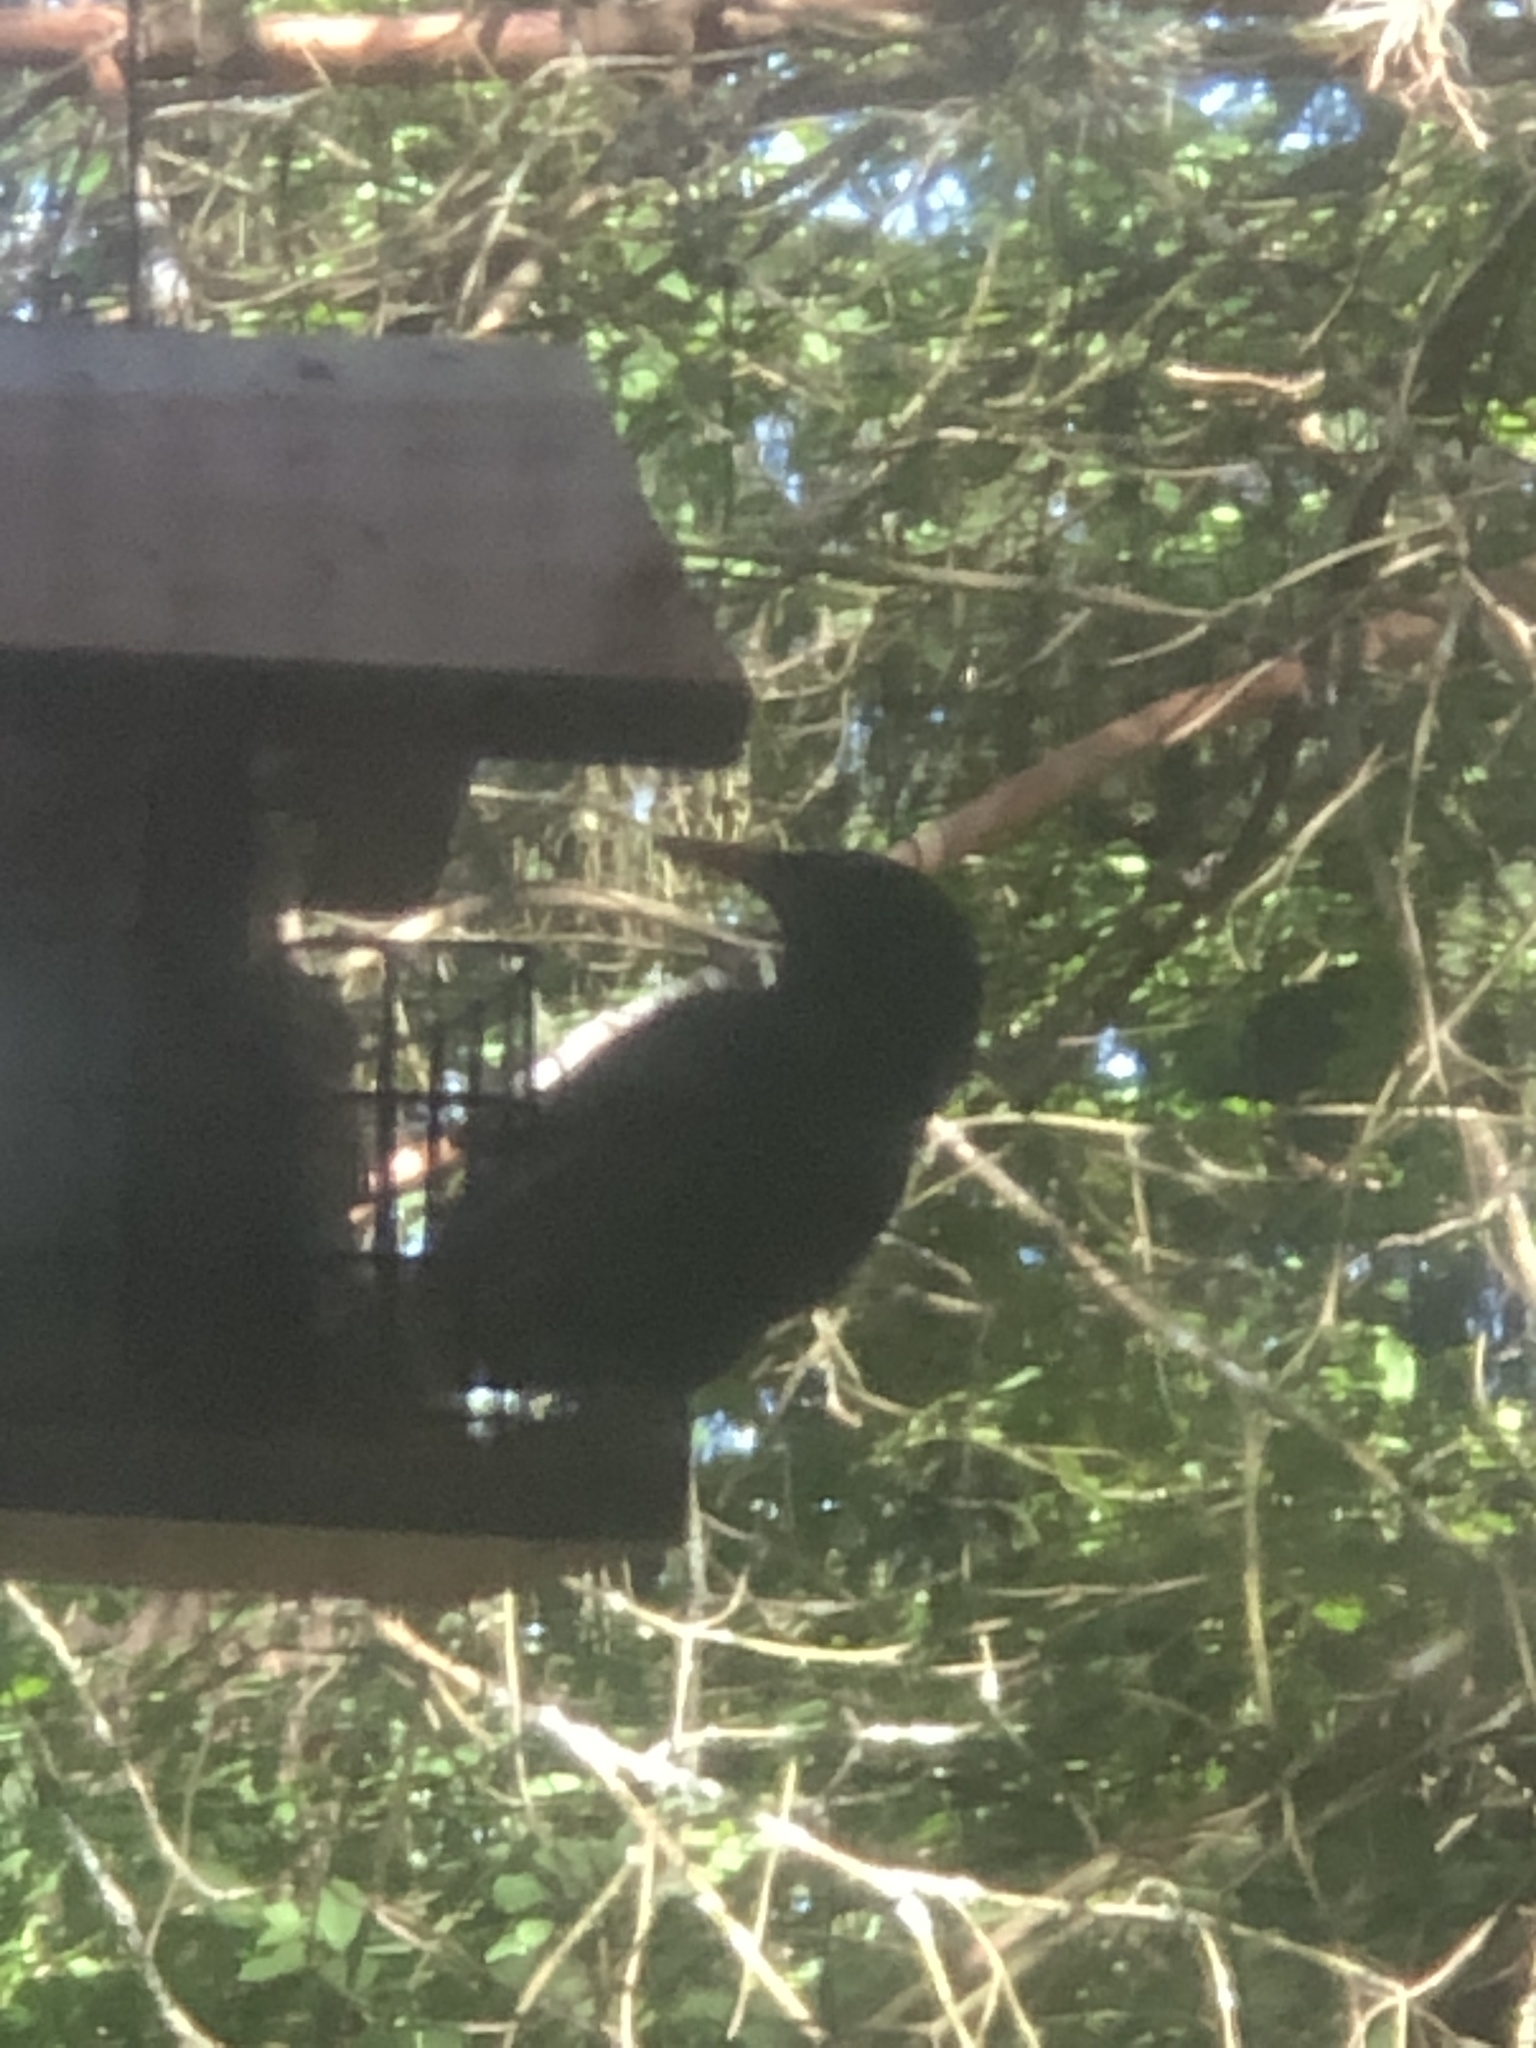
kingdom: Animalia
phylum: Chordata
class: Aves
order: Passeriformes
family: Sturnidae
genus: Sturnus
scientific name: Sturnus vulgaris
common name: Common starling
